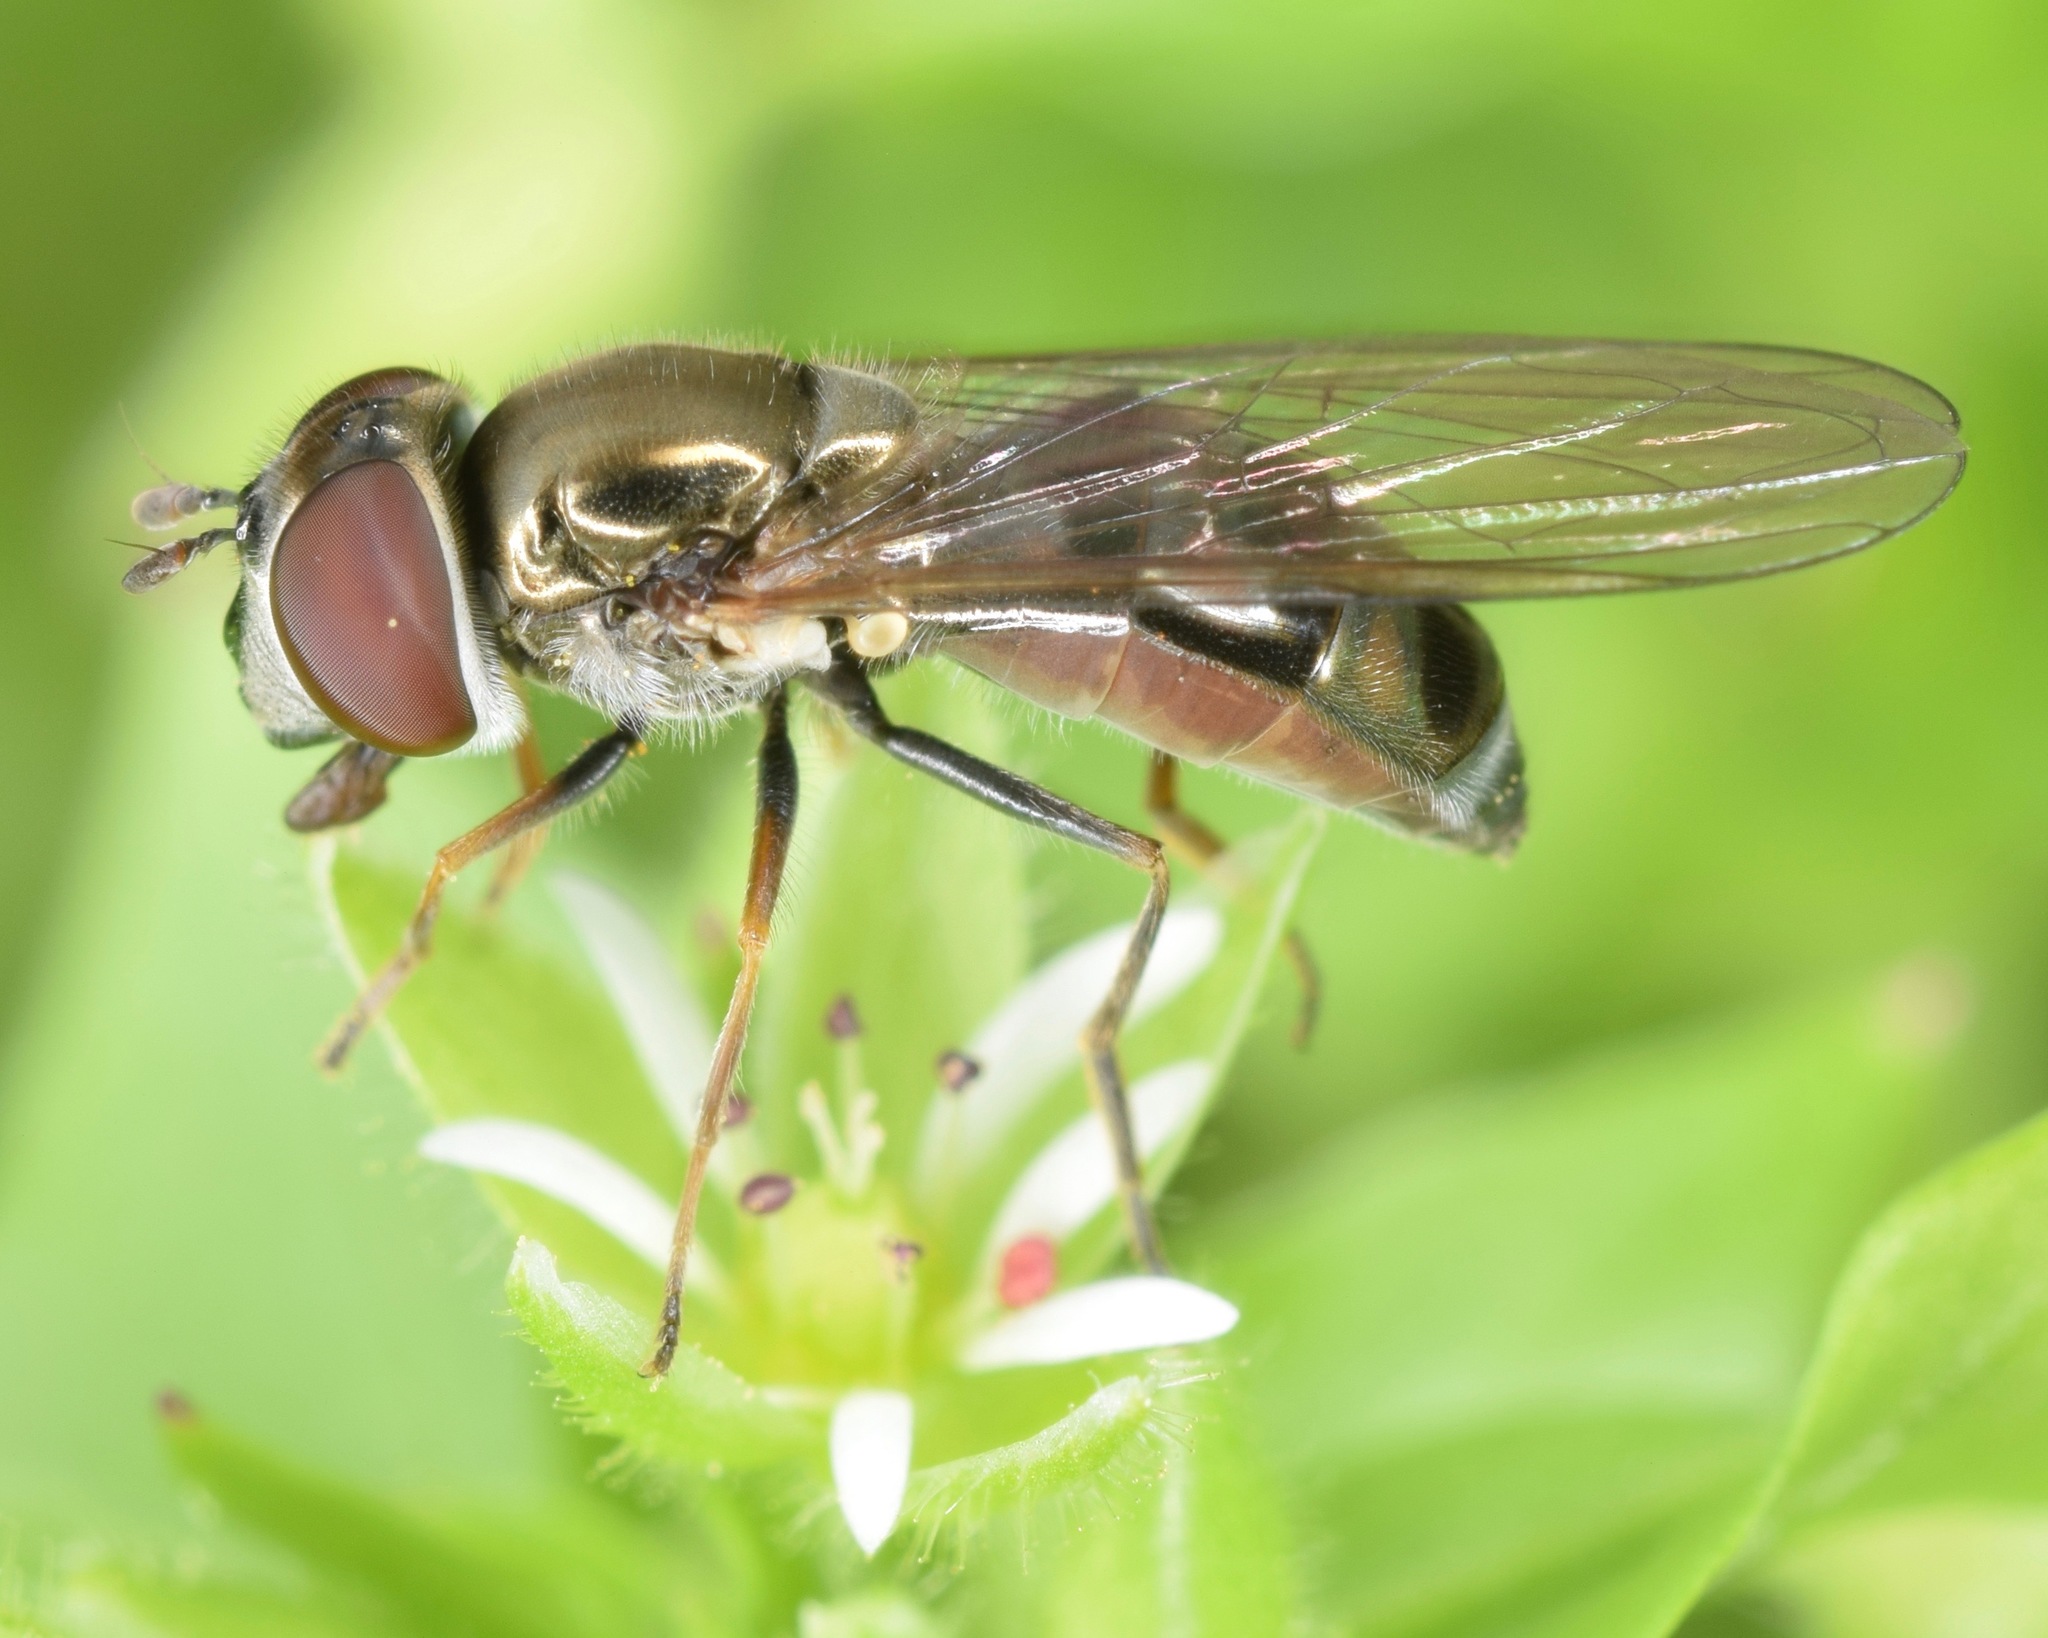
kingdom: Animalia
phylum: Arthropoda
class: Insecta
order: Diptera
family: Syrphidae
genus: Platycheirus
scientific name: Platycheirus obscurus
